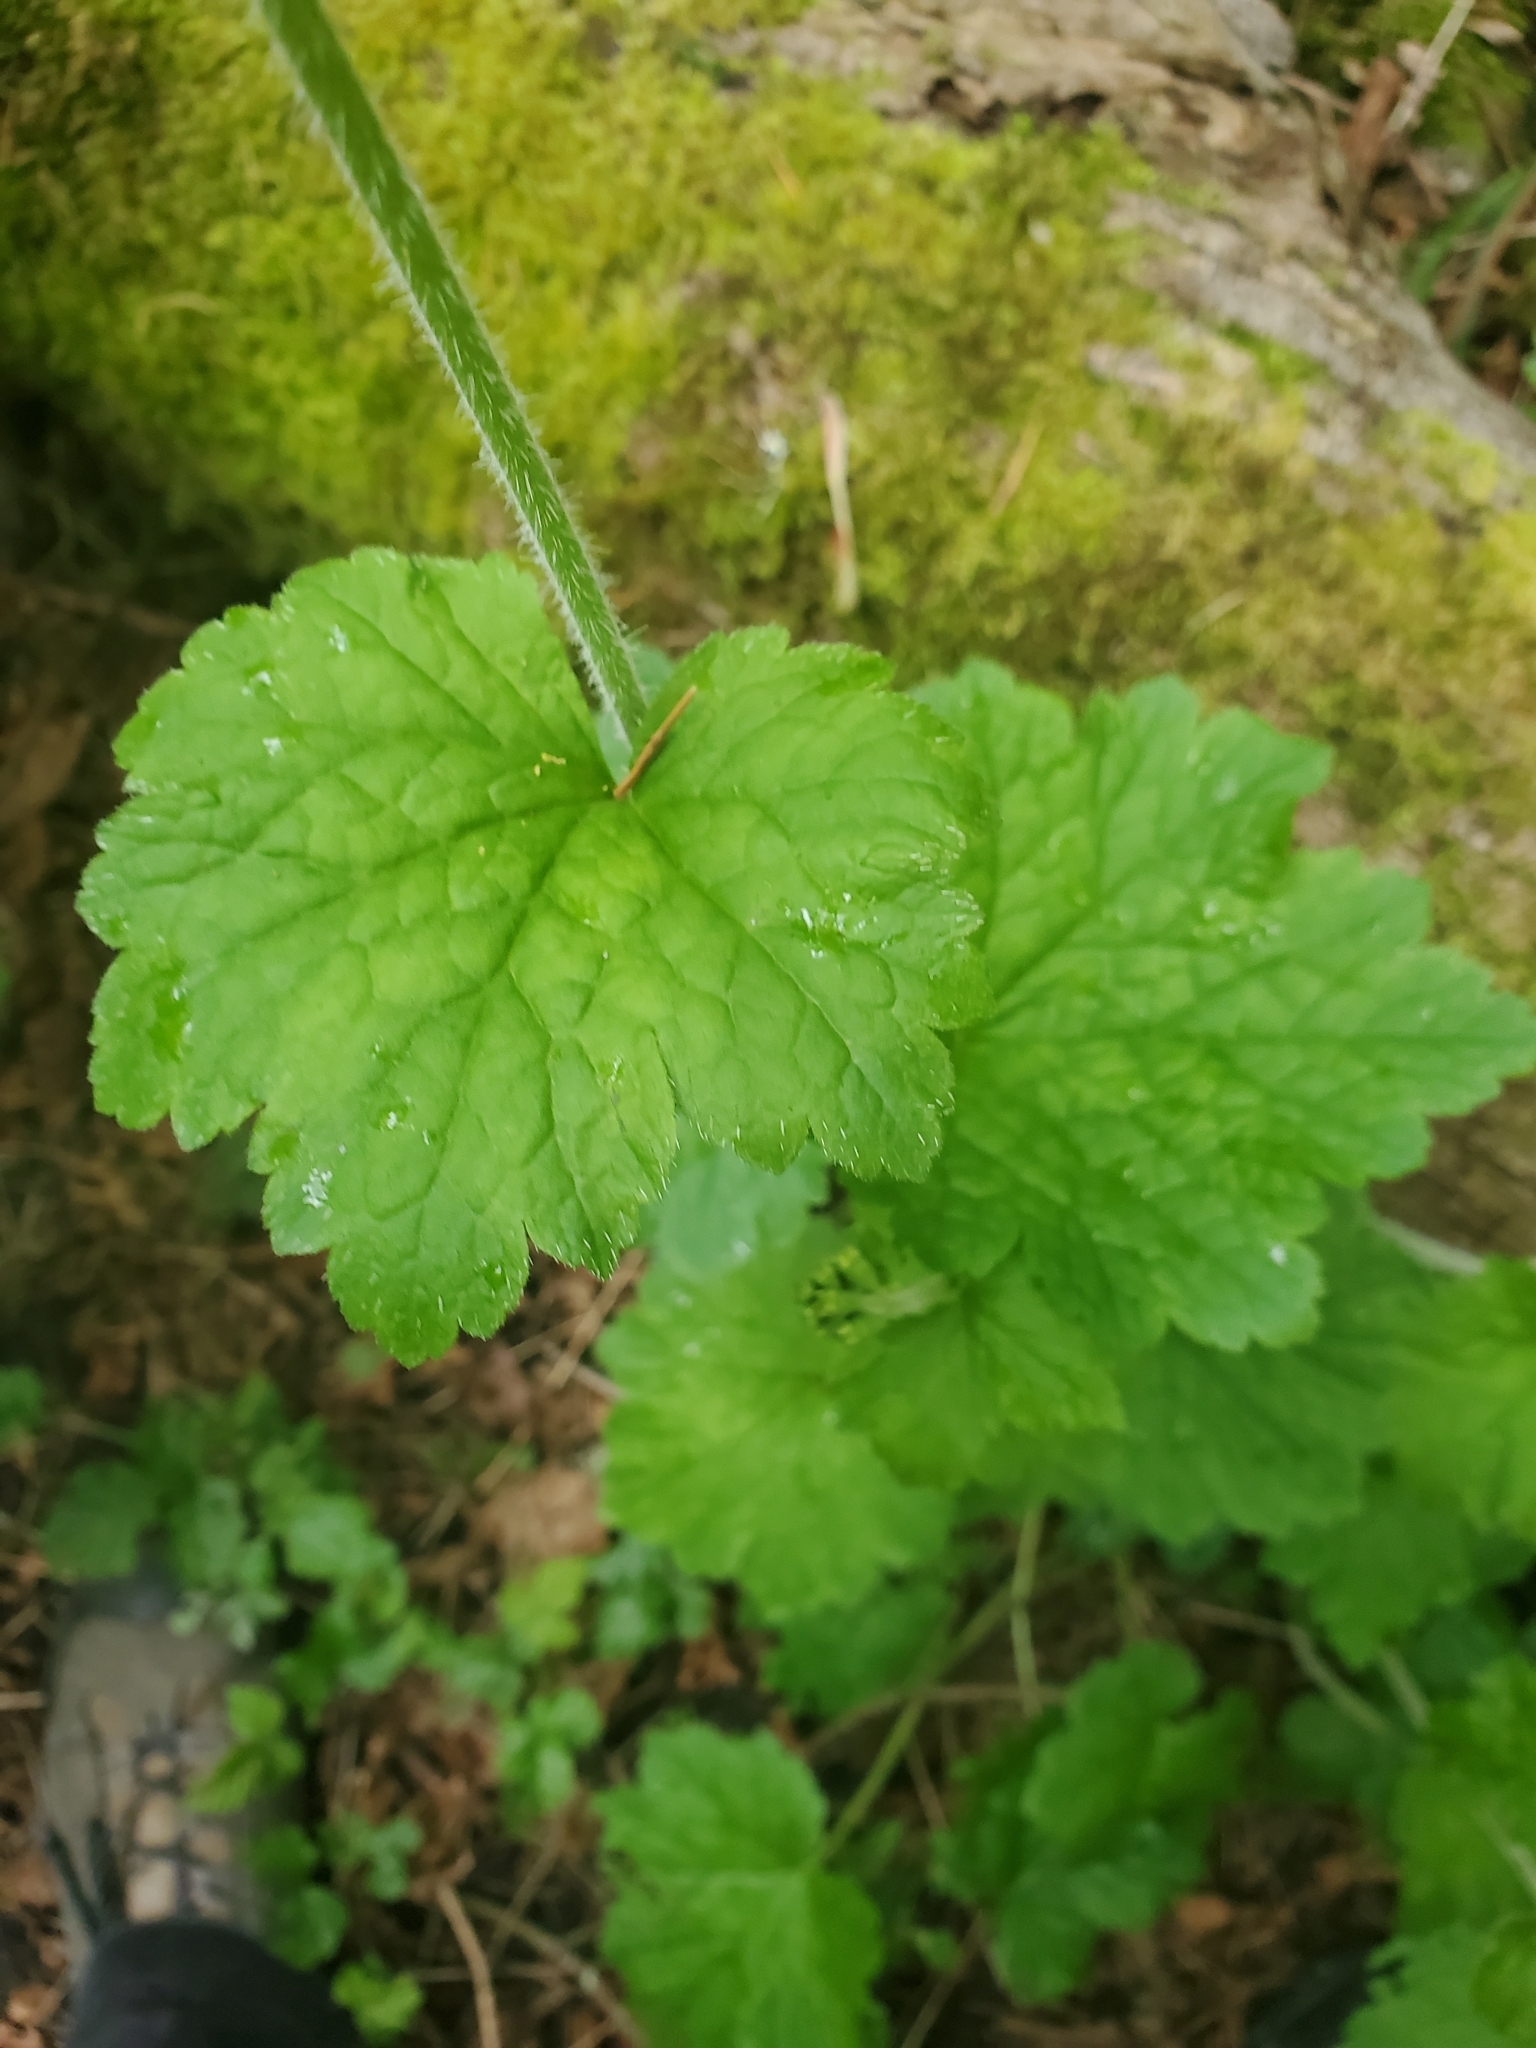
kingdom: Plantae
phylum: Tracheophyta
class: Magnoliopsida
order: Saxifragales
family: Saxifragaceae
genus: Tellima
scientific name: Tellima grandiflora
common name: Fringecups
